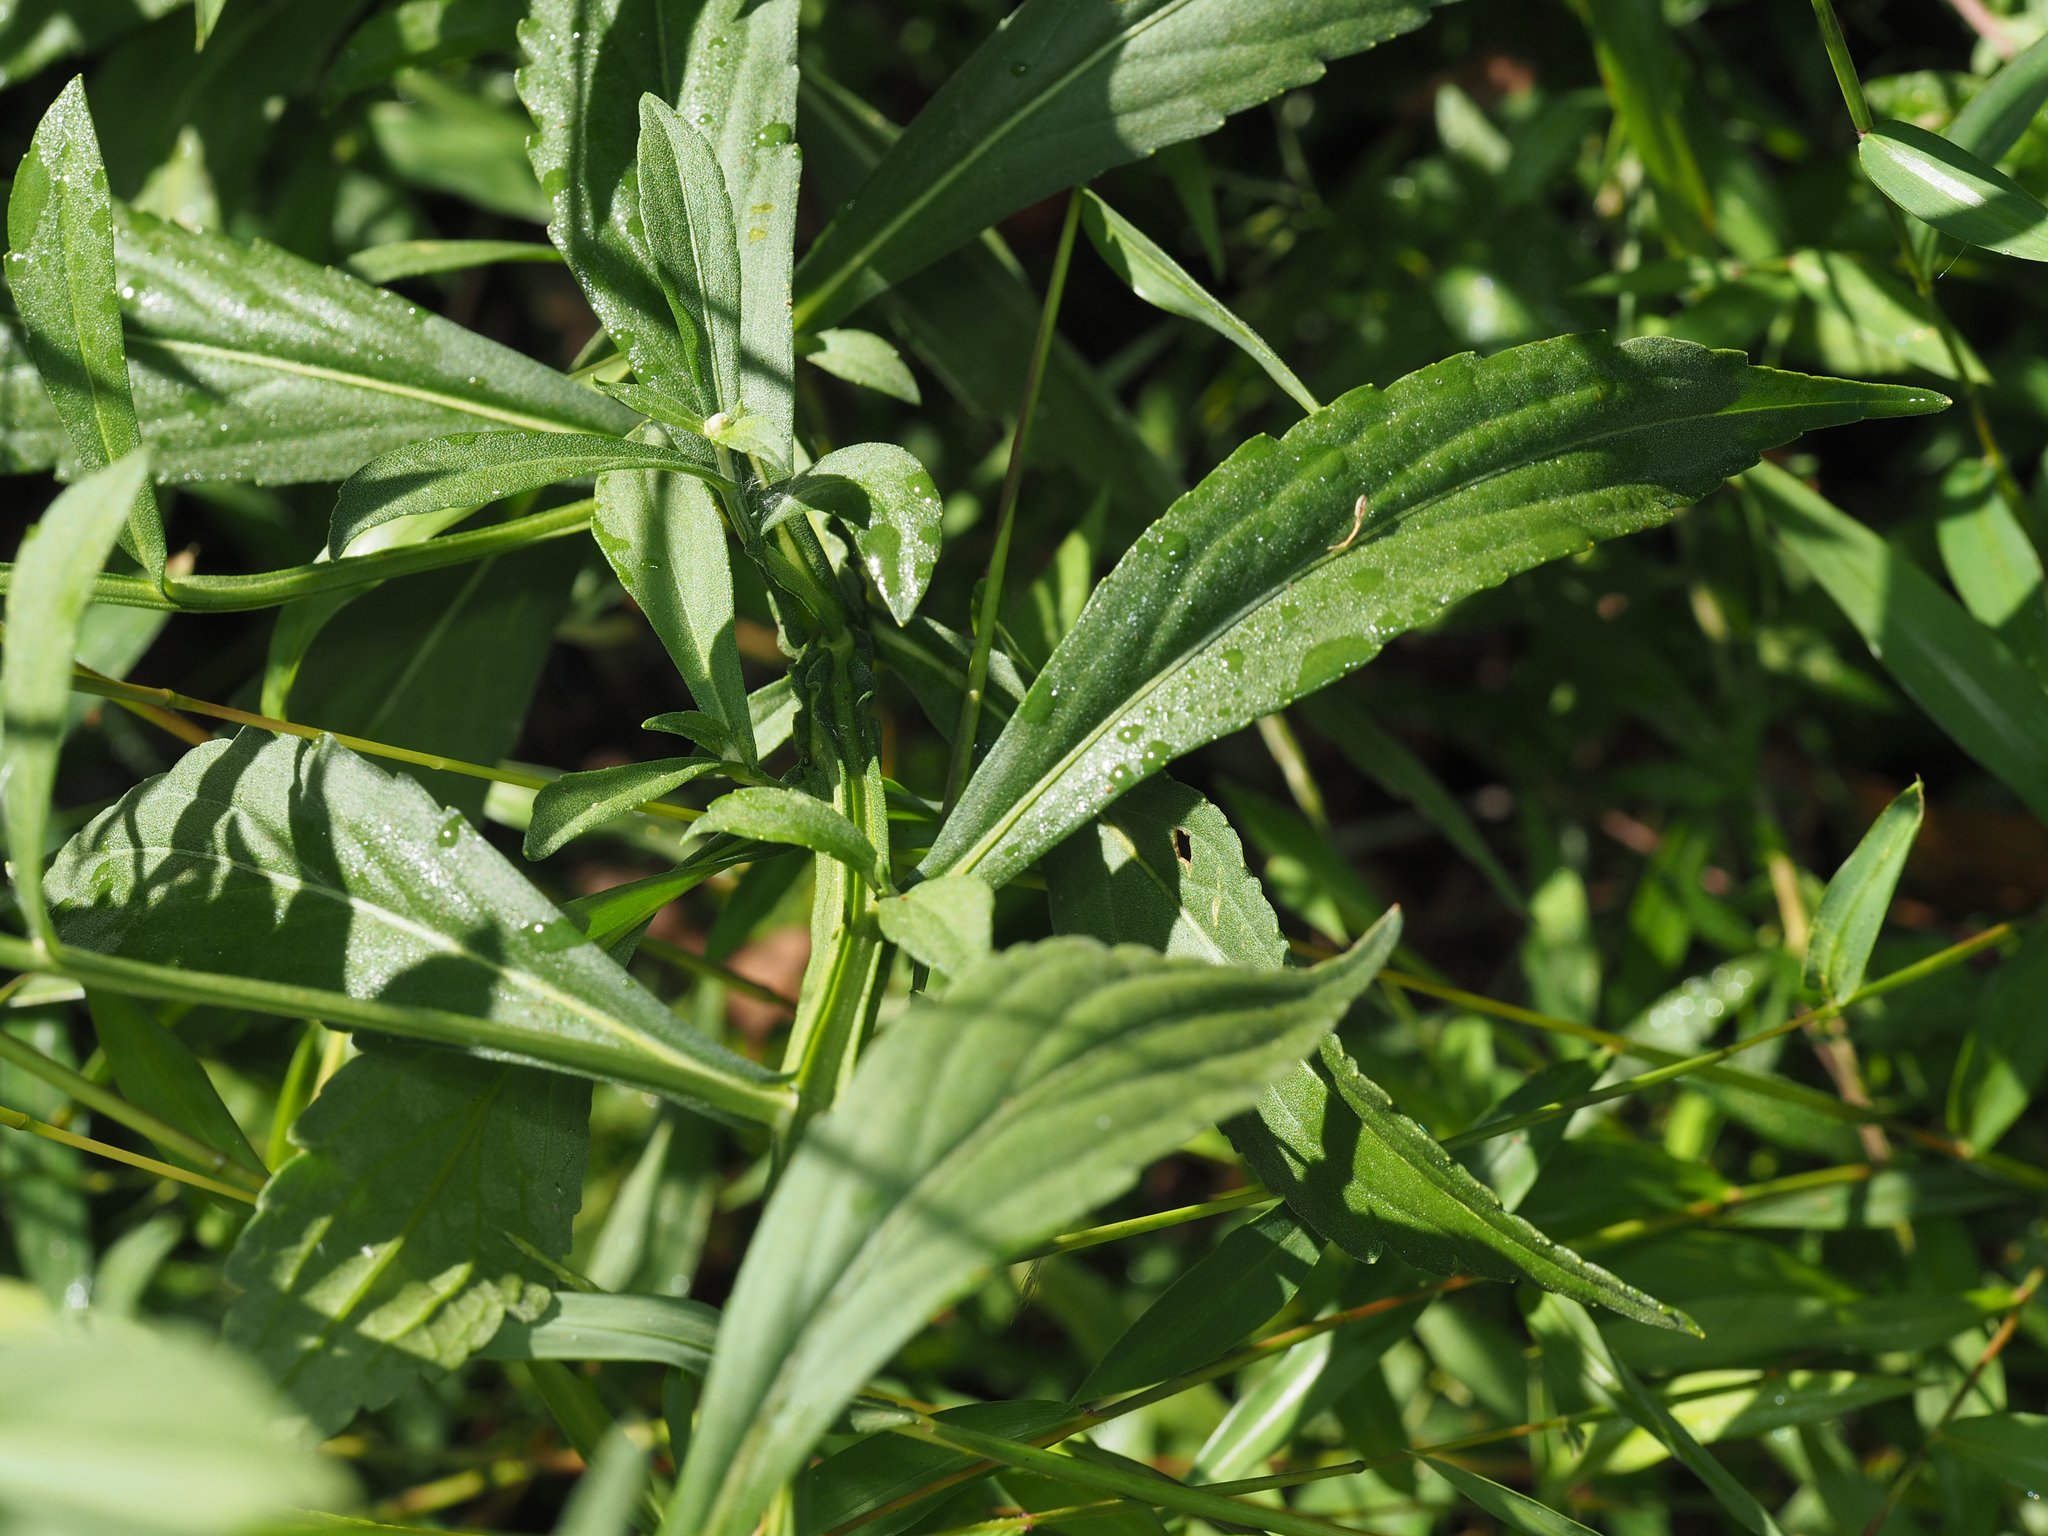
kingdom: Plantae
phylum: Tracheophyta
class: Magnoliopsida
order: Asterales
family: Asteraceae
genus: Helenium
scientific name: Helenium autumnale
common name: Sneezeweed
